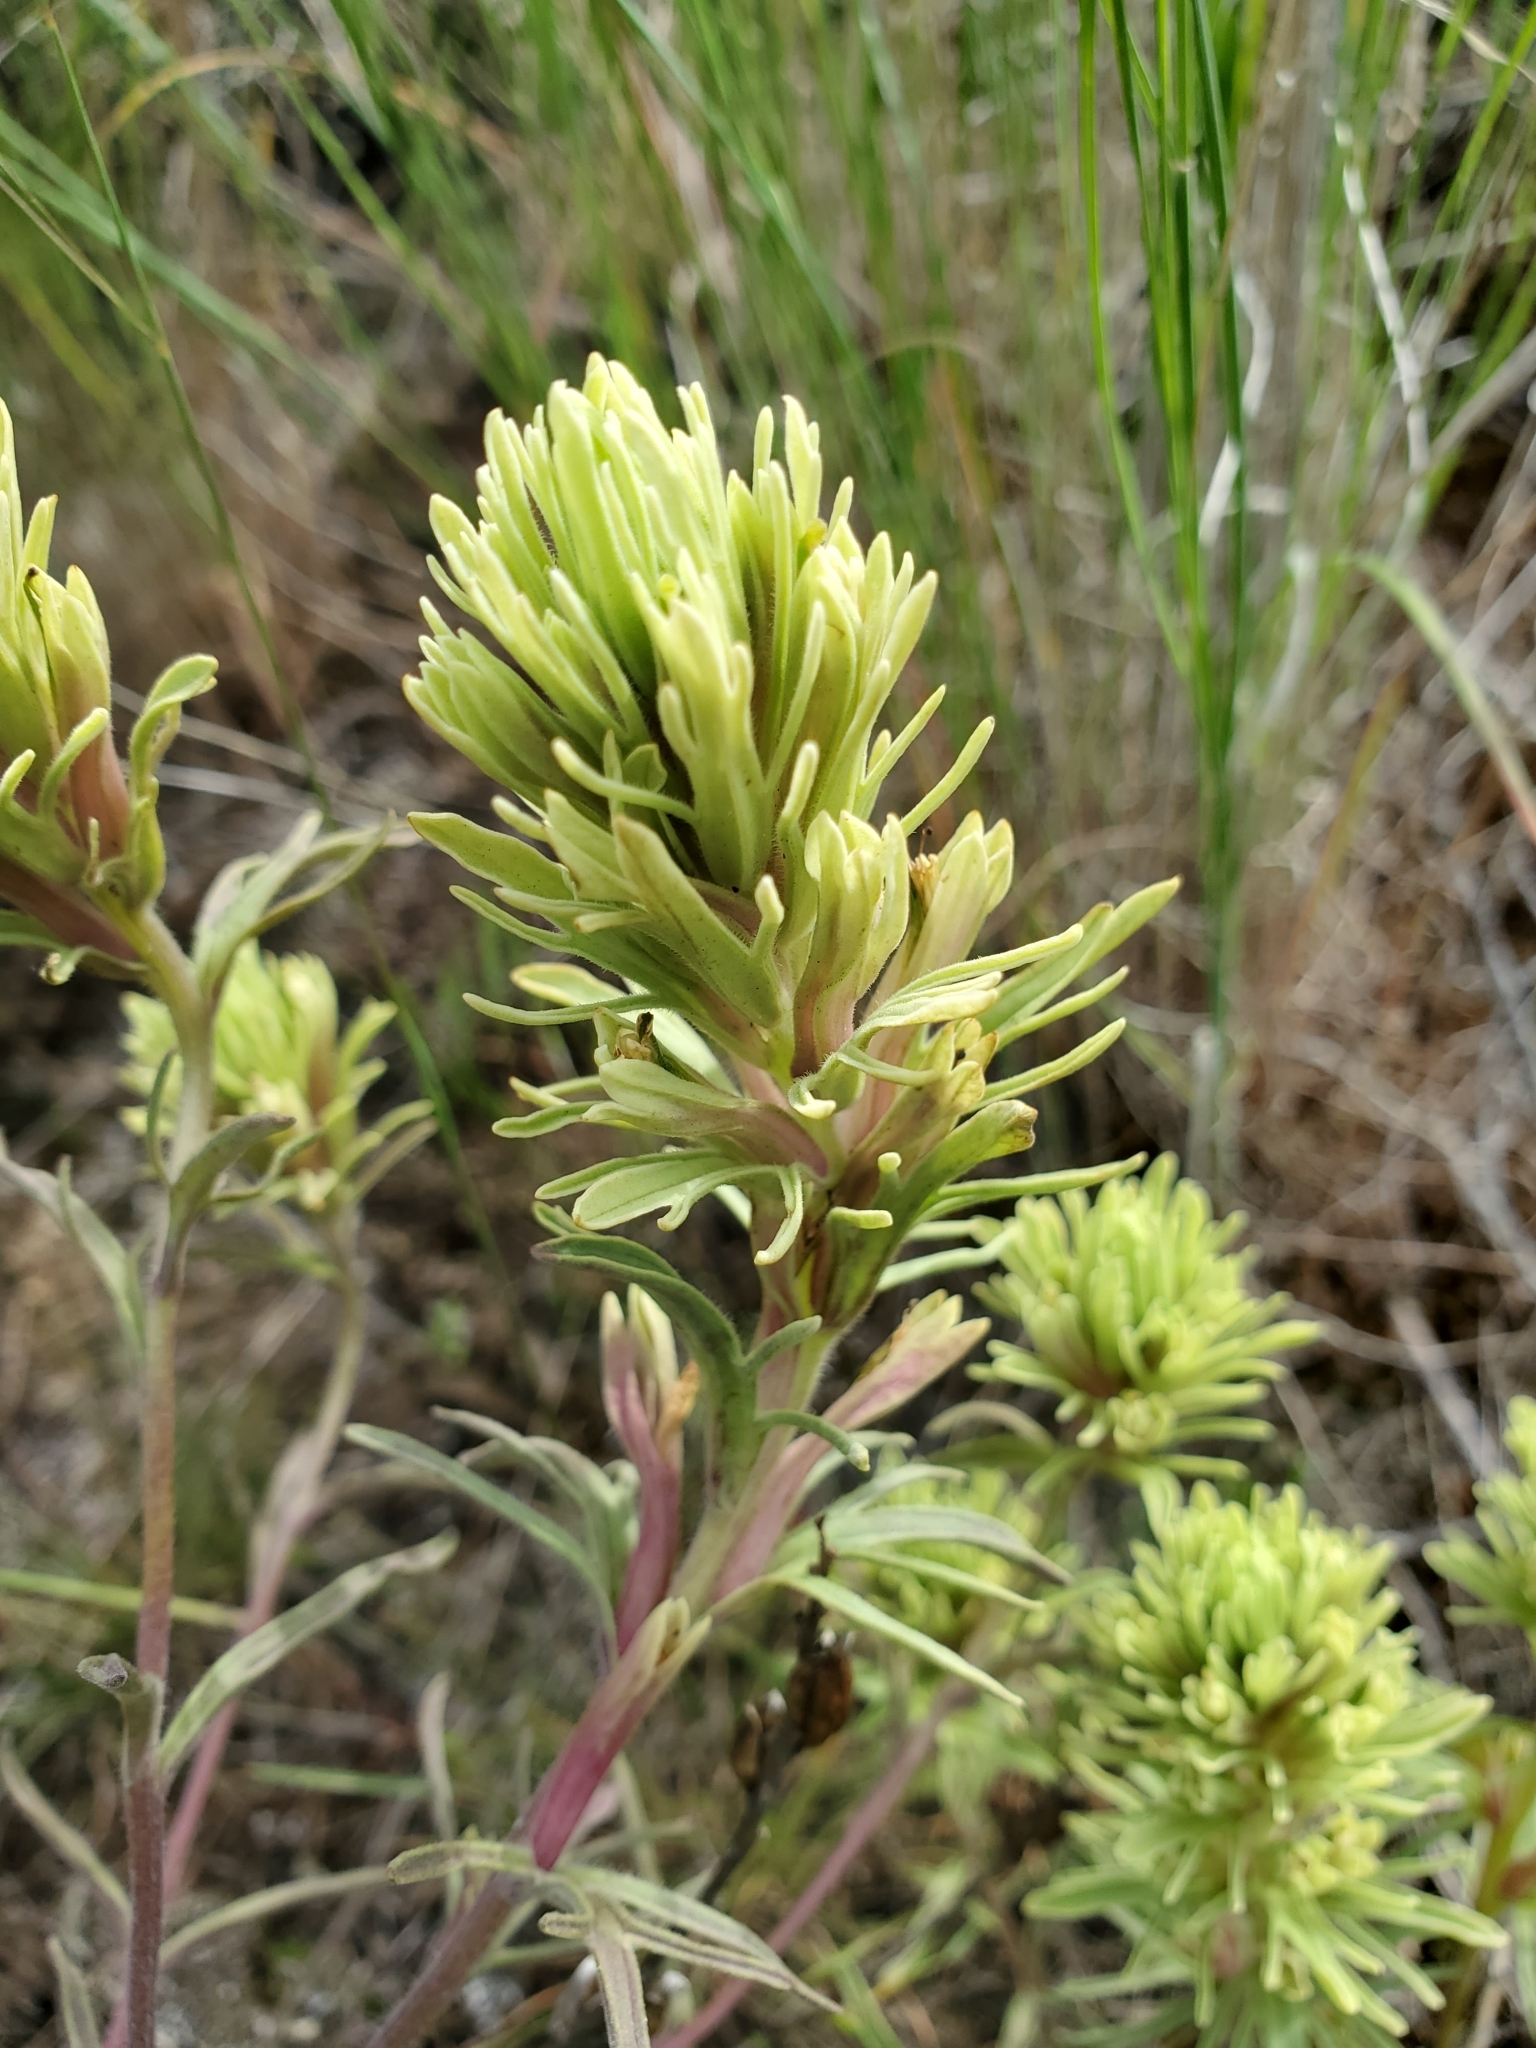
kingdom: Plantae
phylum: Tracheophyta
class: Magnoliopsida
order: Lamiales
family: Orobanchaceae
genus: Castilleja
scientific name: Castilleja thompsonii
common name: Thompson's paintbrush
